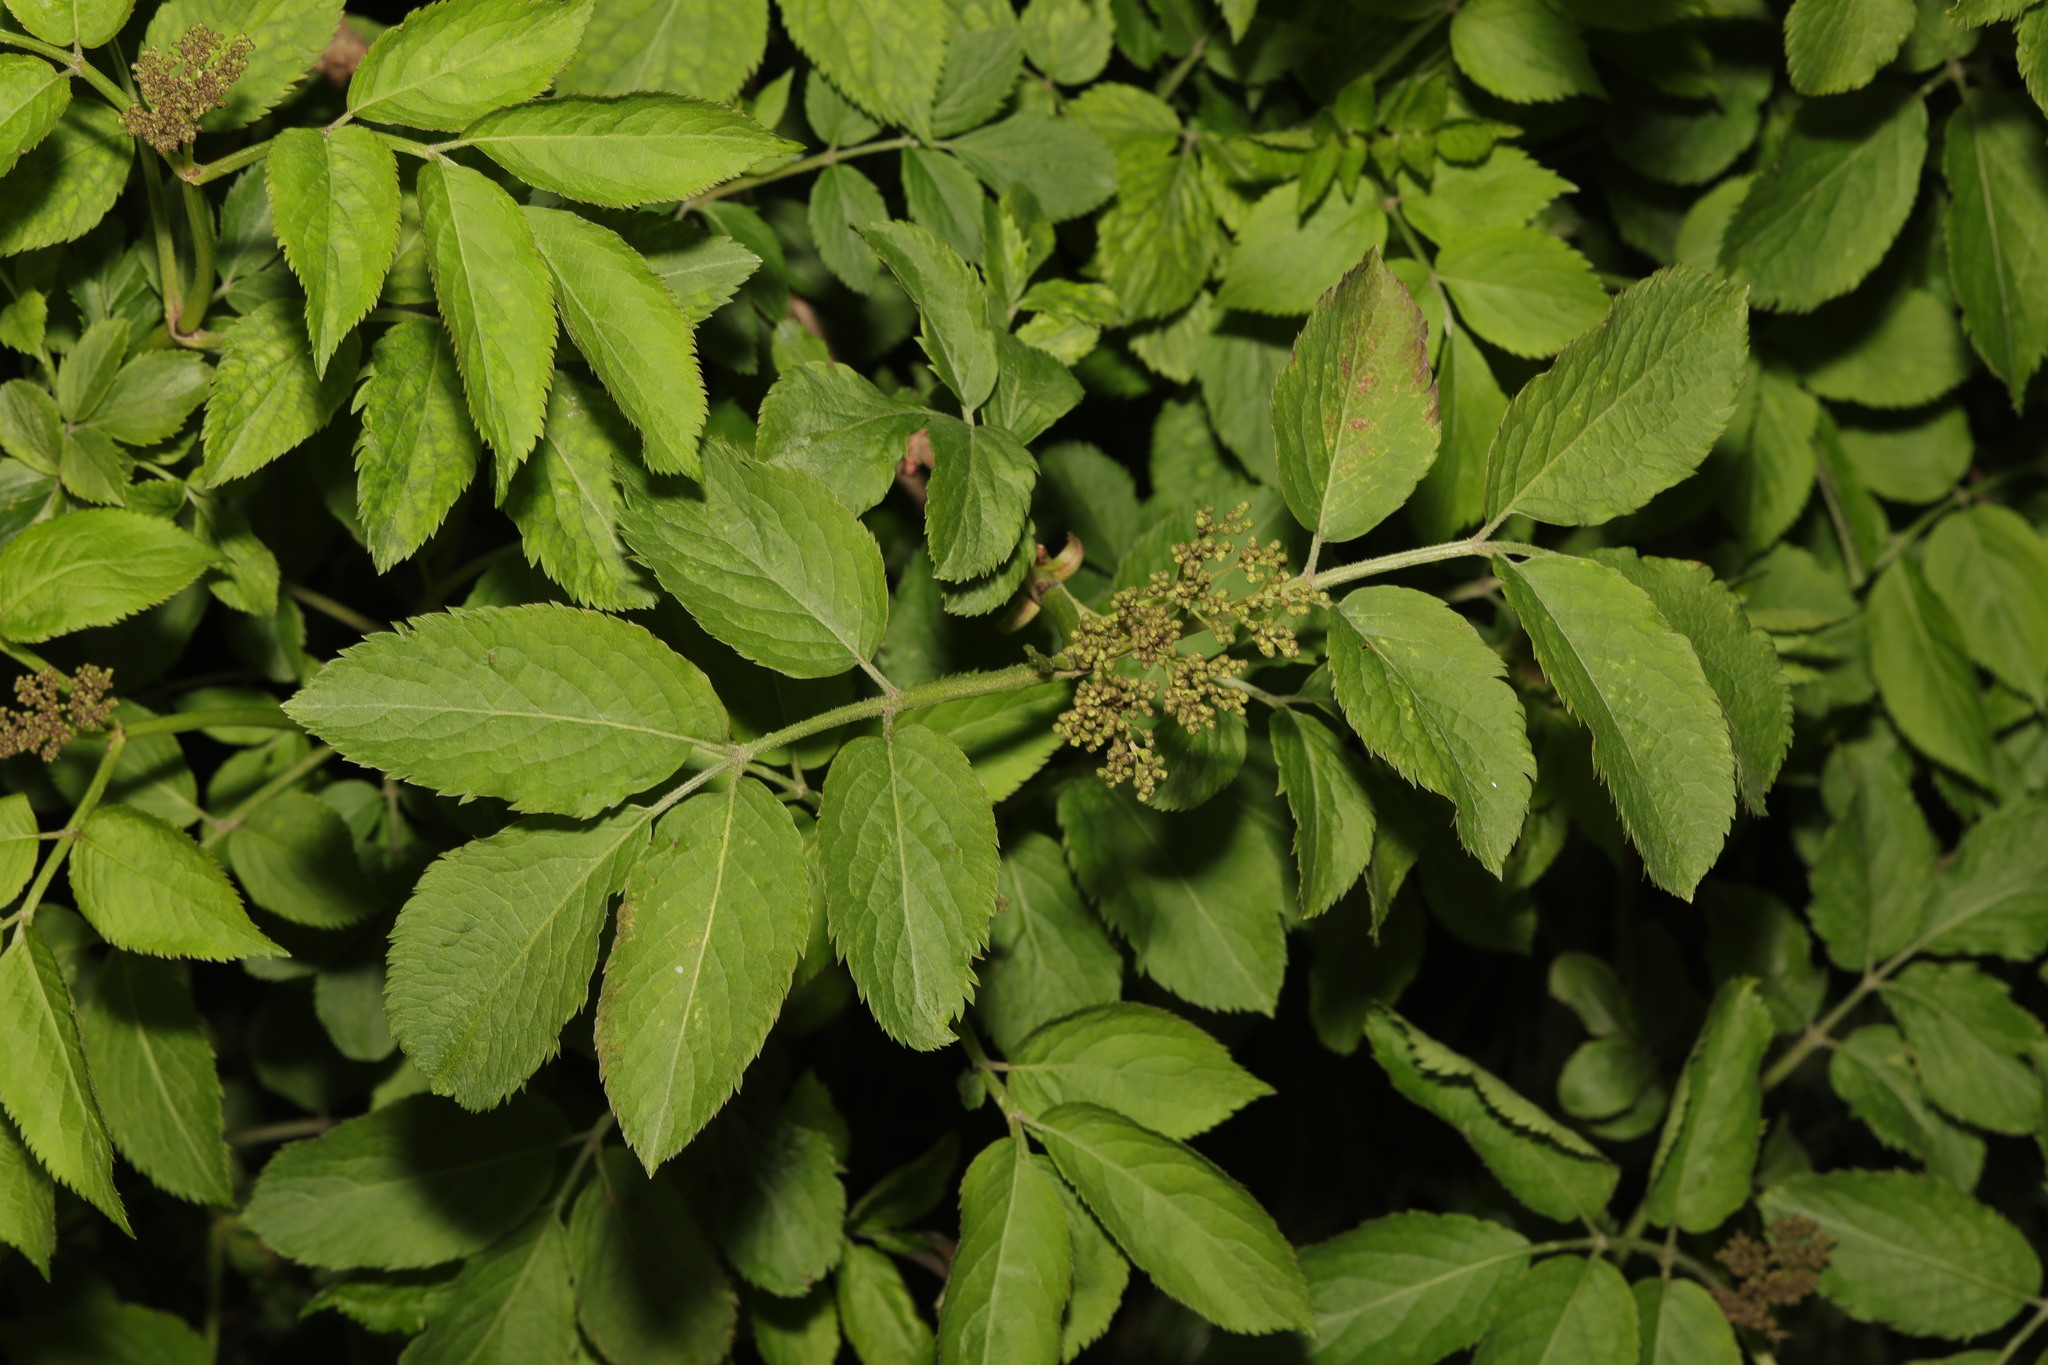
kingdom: Plantae
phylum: Tracheophyta
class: Magnoliopsida
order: Dipsacales
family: Viburnaceae
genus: Sambucus
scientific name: Sambucus nigra
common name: Elder
